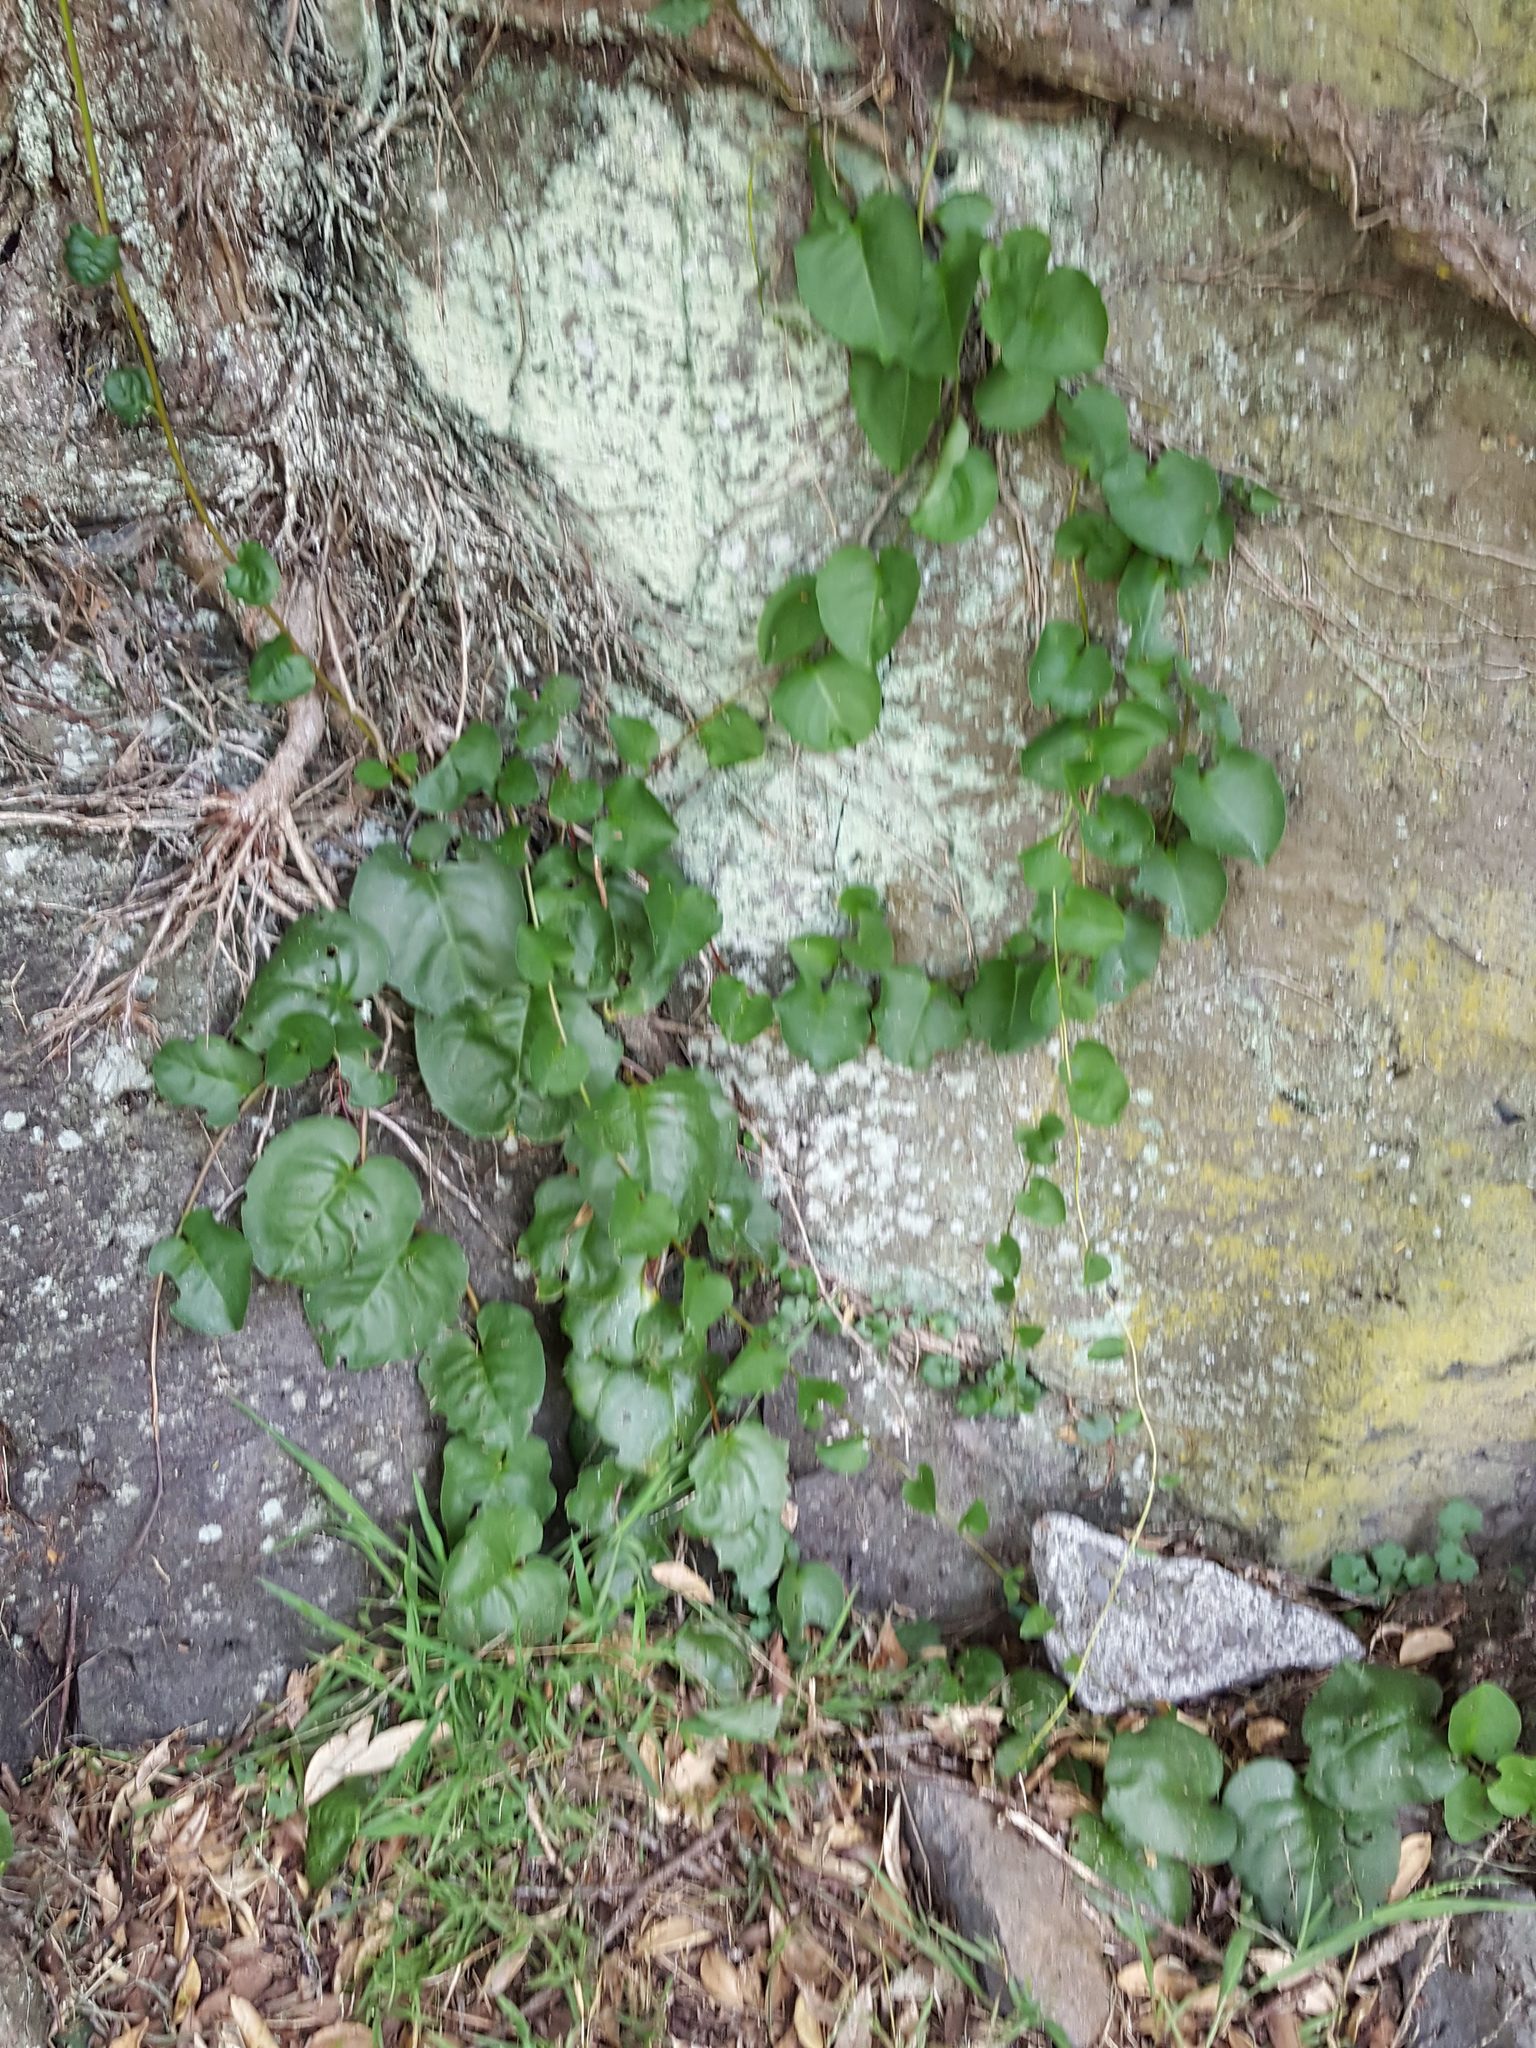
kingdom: Plantae
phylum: Tracheophyta
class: Magnoliopsida
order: Caryophyllales
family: Basellaceae
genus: Anredera
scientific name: Anredera cordifolia
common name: Heartleaf madeiravine
